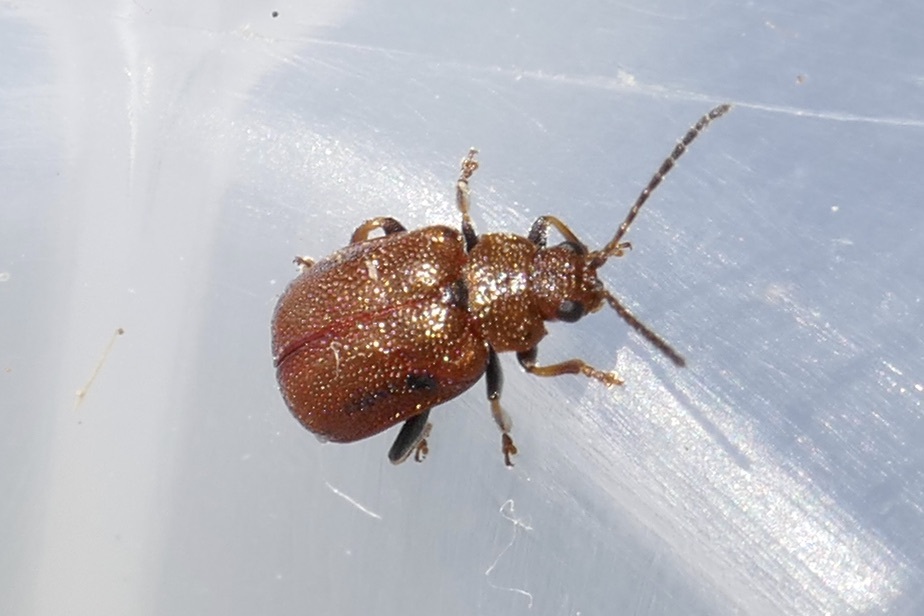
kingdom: Animalia
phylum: Arthropoda
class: Insecta
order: Coleoptera
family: Chrysomelidae
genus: Lochmaea
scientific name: Lochmaea crataegi
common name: Hawthorn leaf beetle
